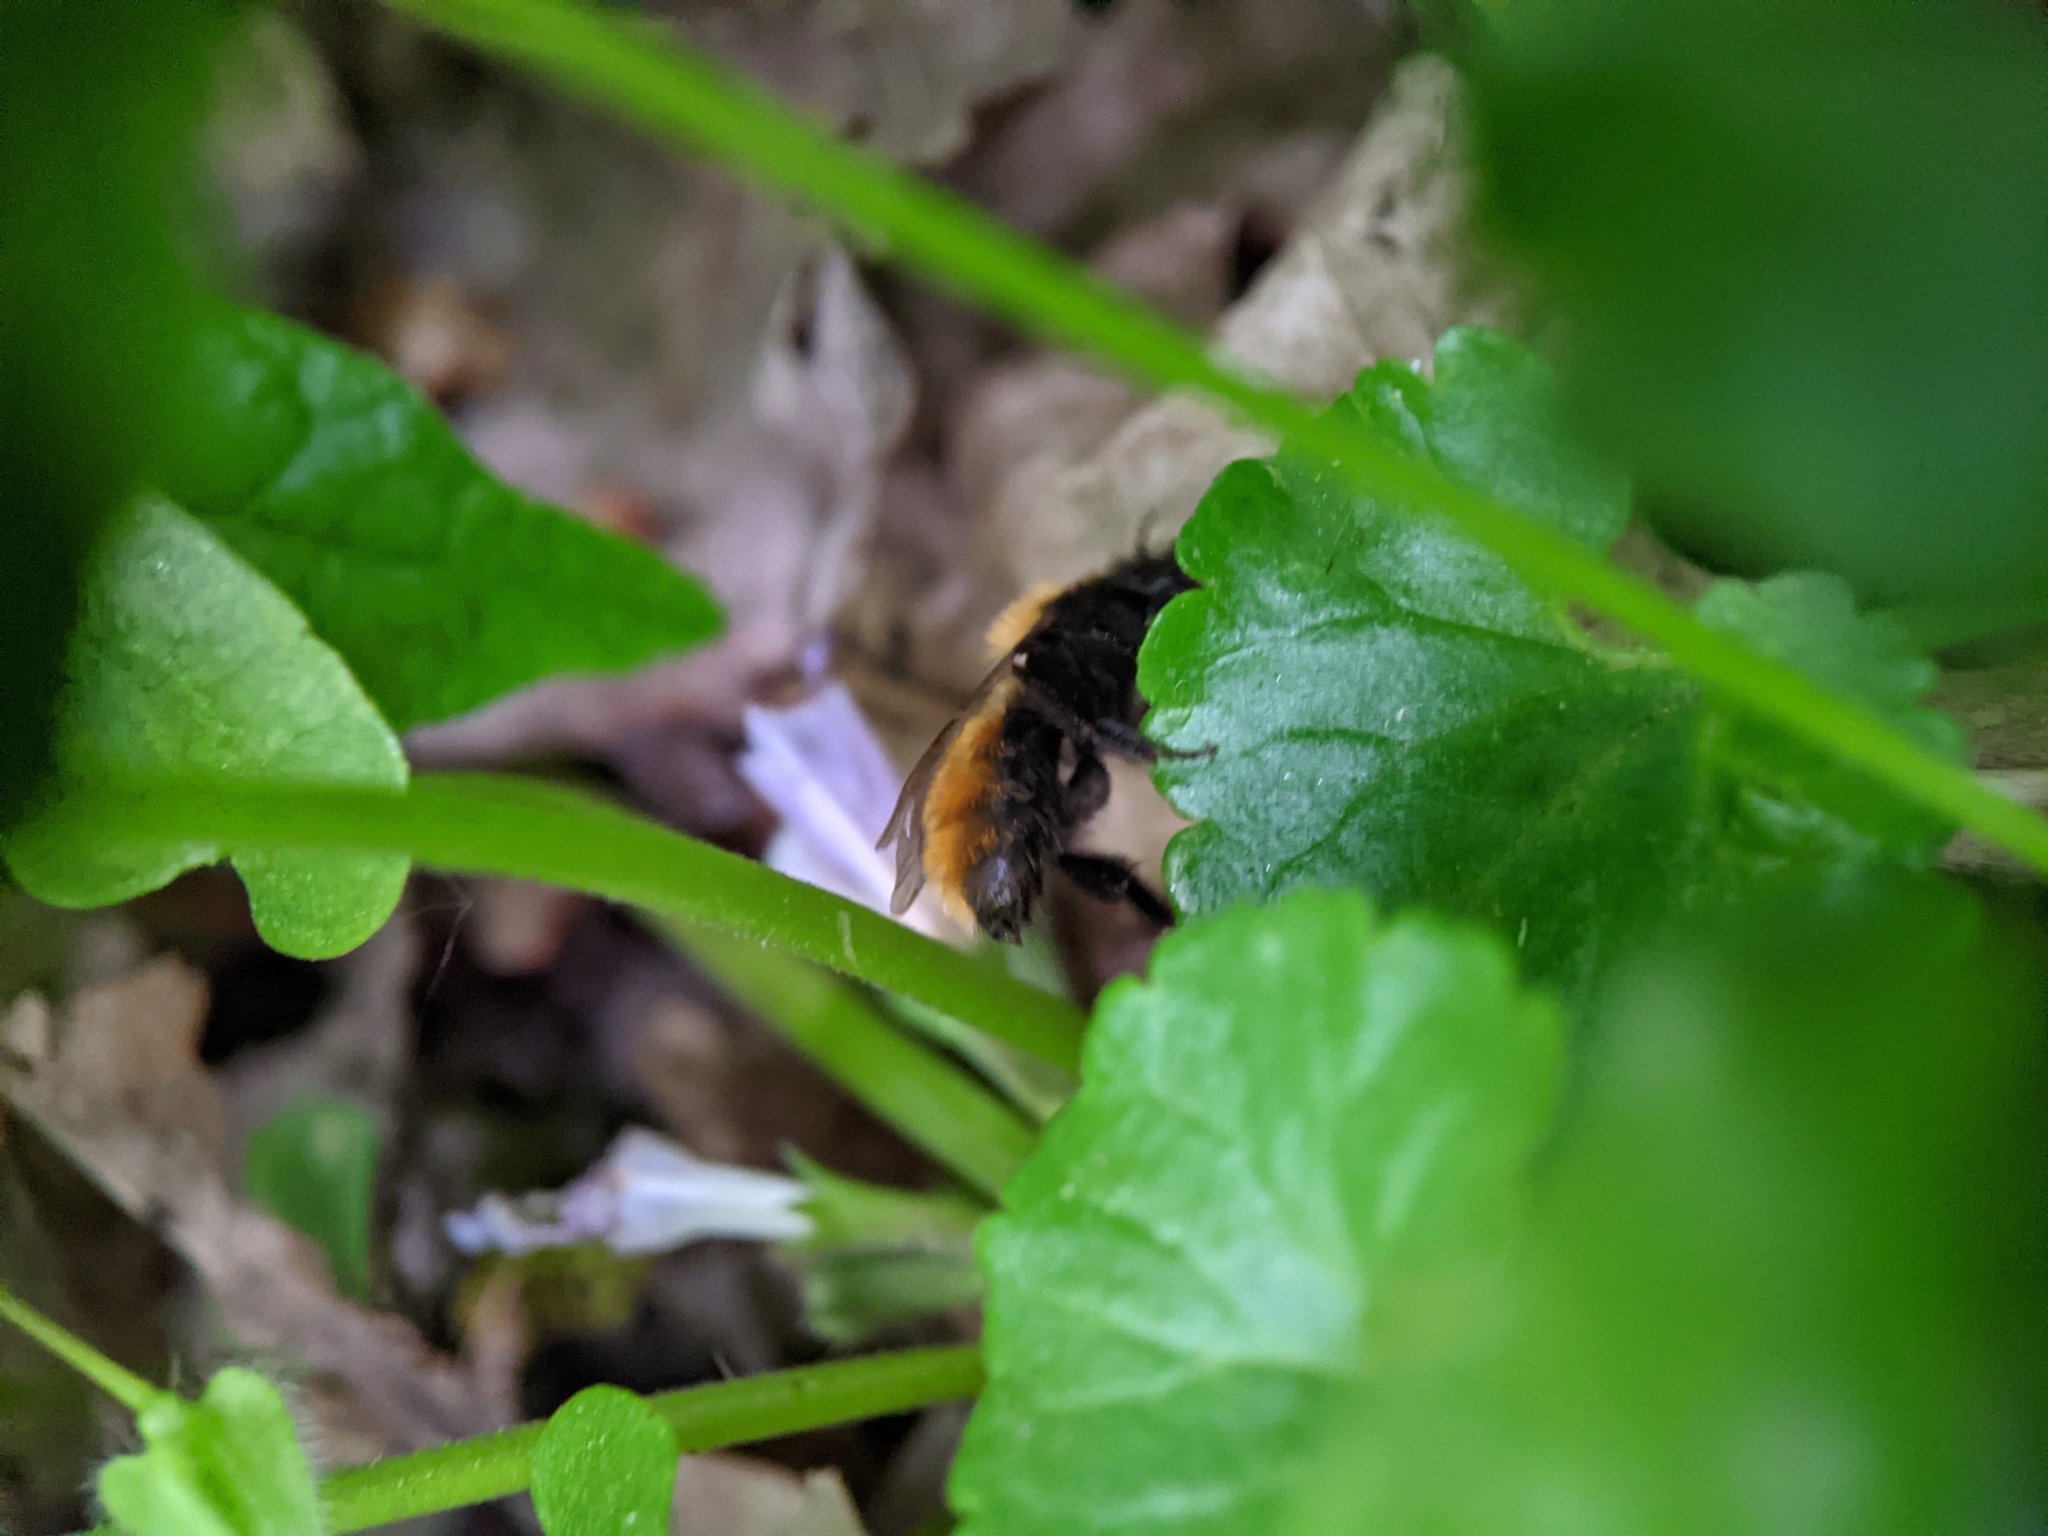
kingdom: Animalia
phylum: Arthropoda
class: Insecta
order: Hymenoptera
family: Andrenidae
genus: Andrena
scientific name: Andrena fulva
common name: Tawny mining bee
